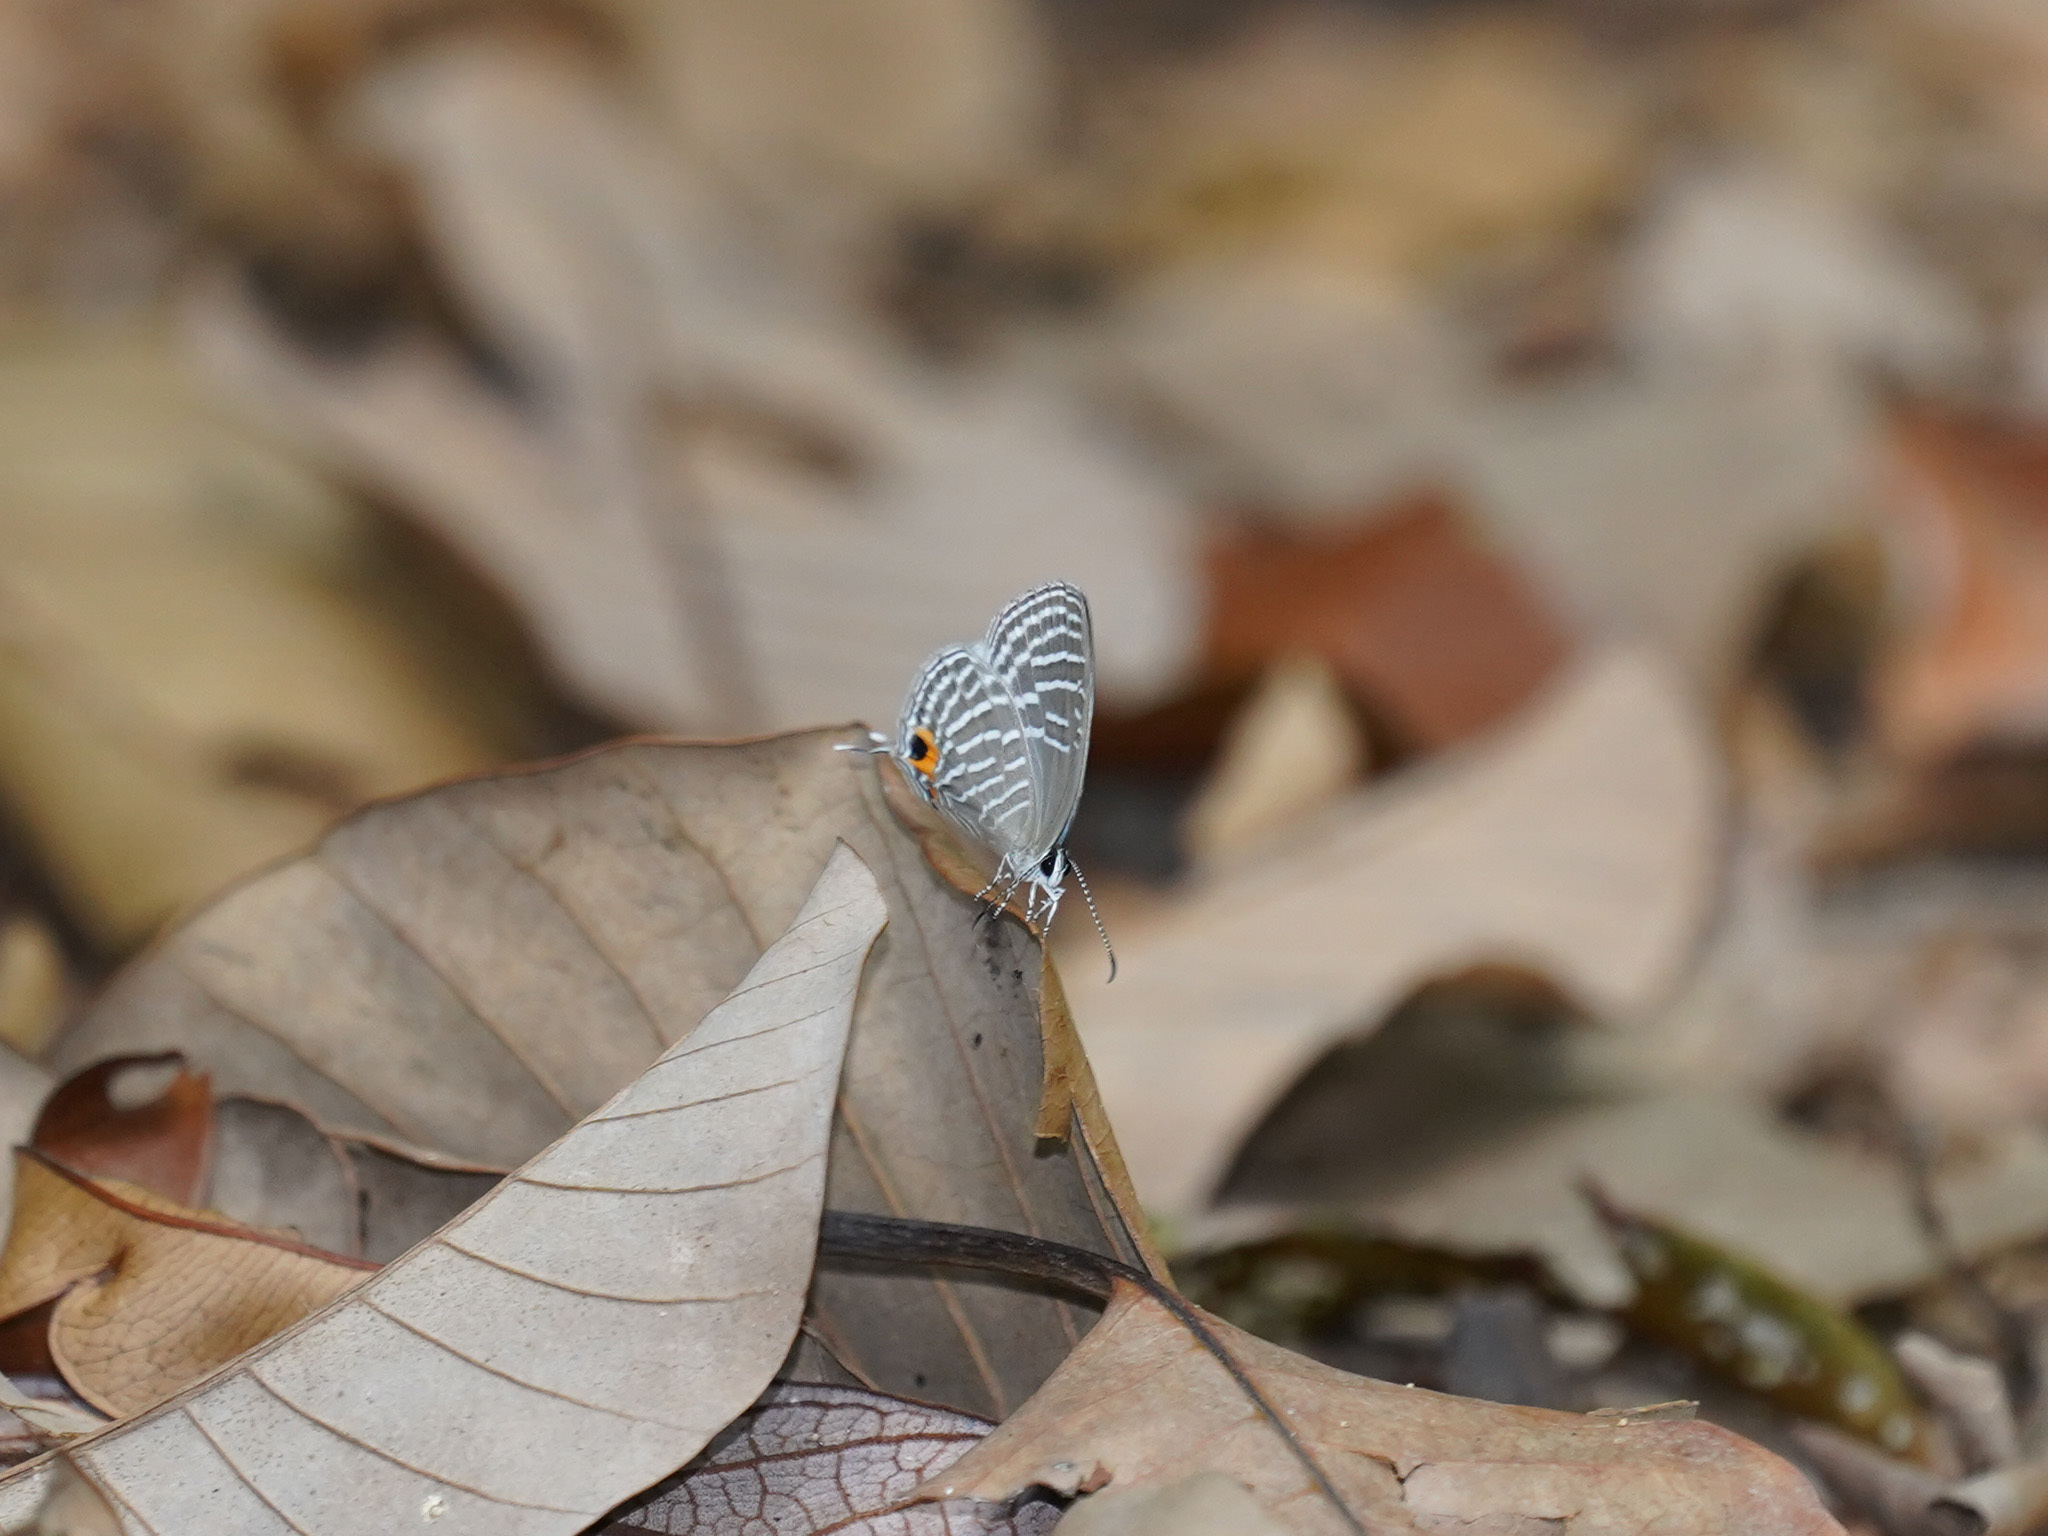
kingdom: Animalia
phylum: Arthropoda
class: Insecta
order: Lepidoptera
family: Lycaenidae
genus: Jamides
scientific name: Jamides celeno
